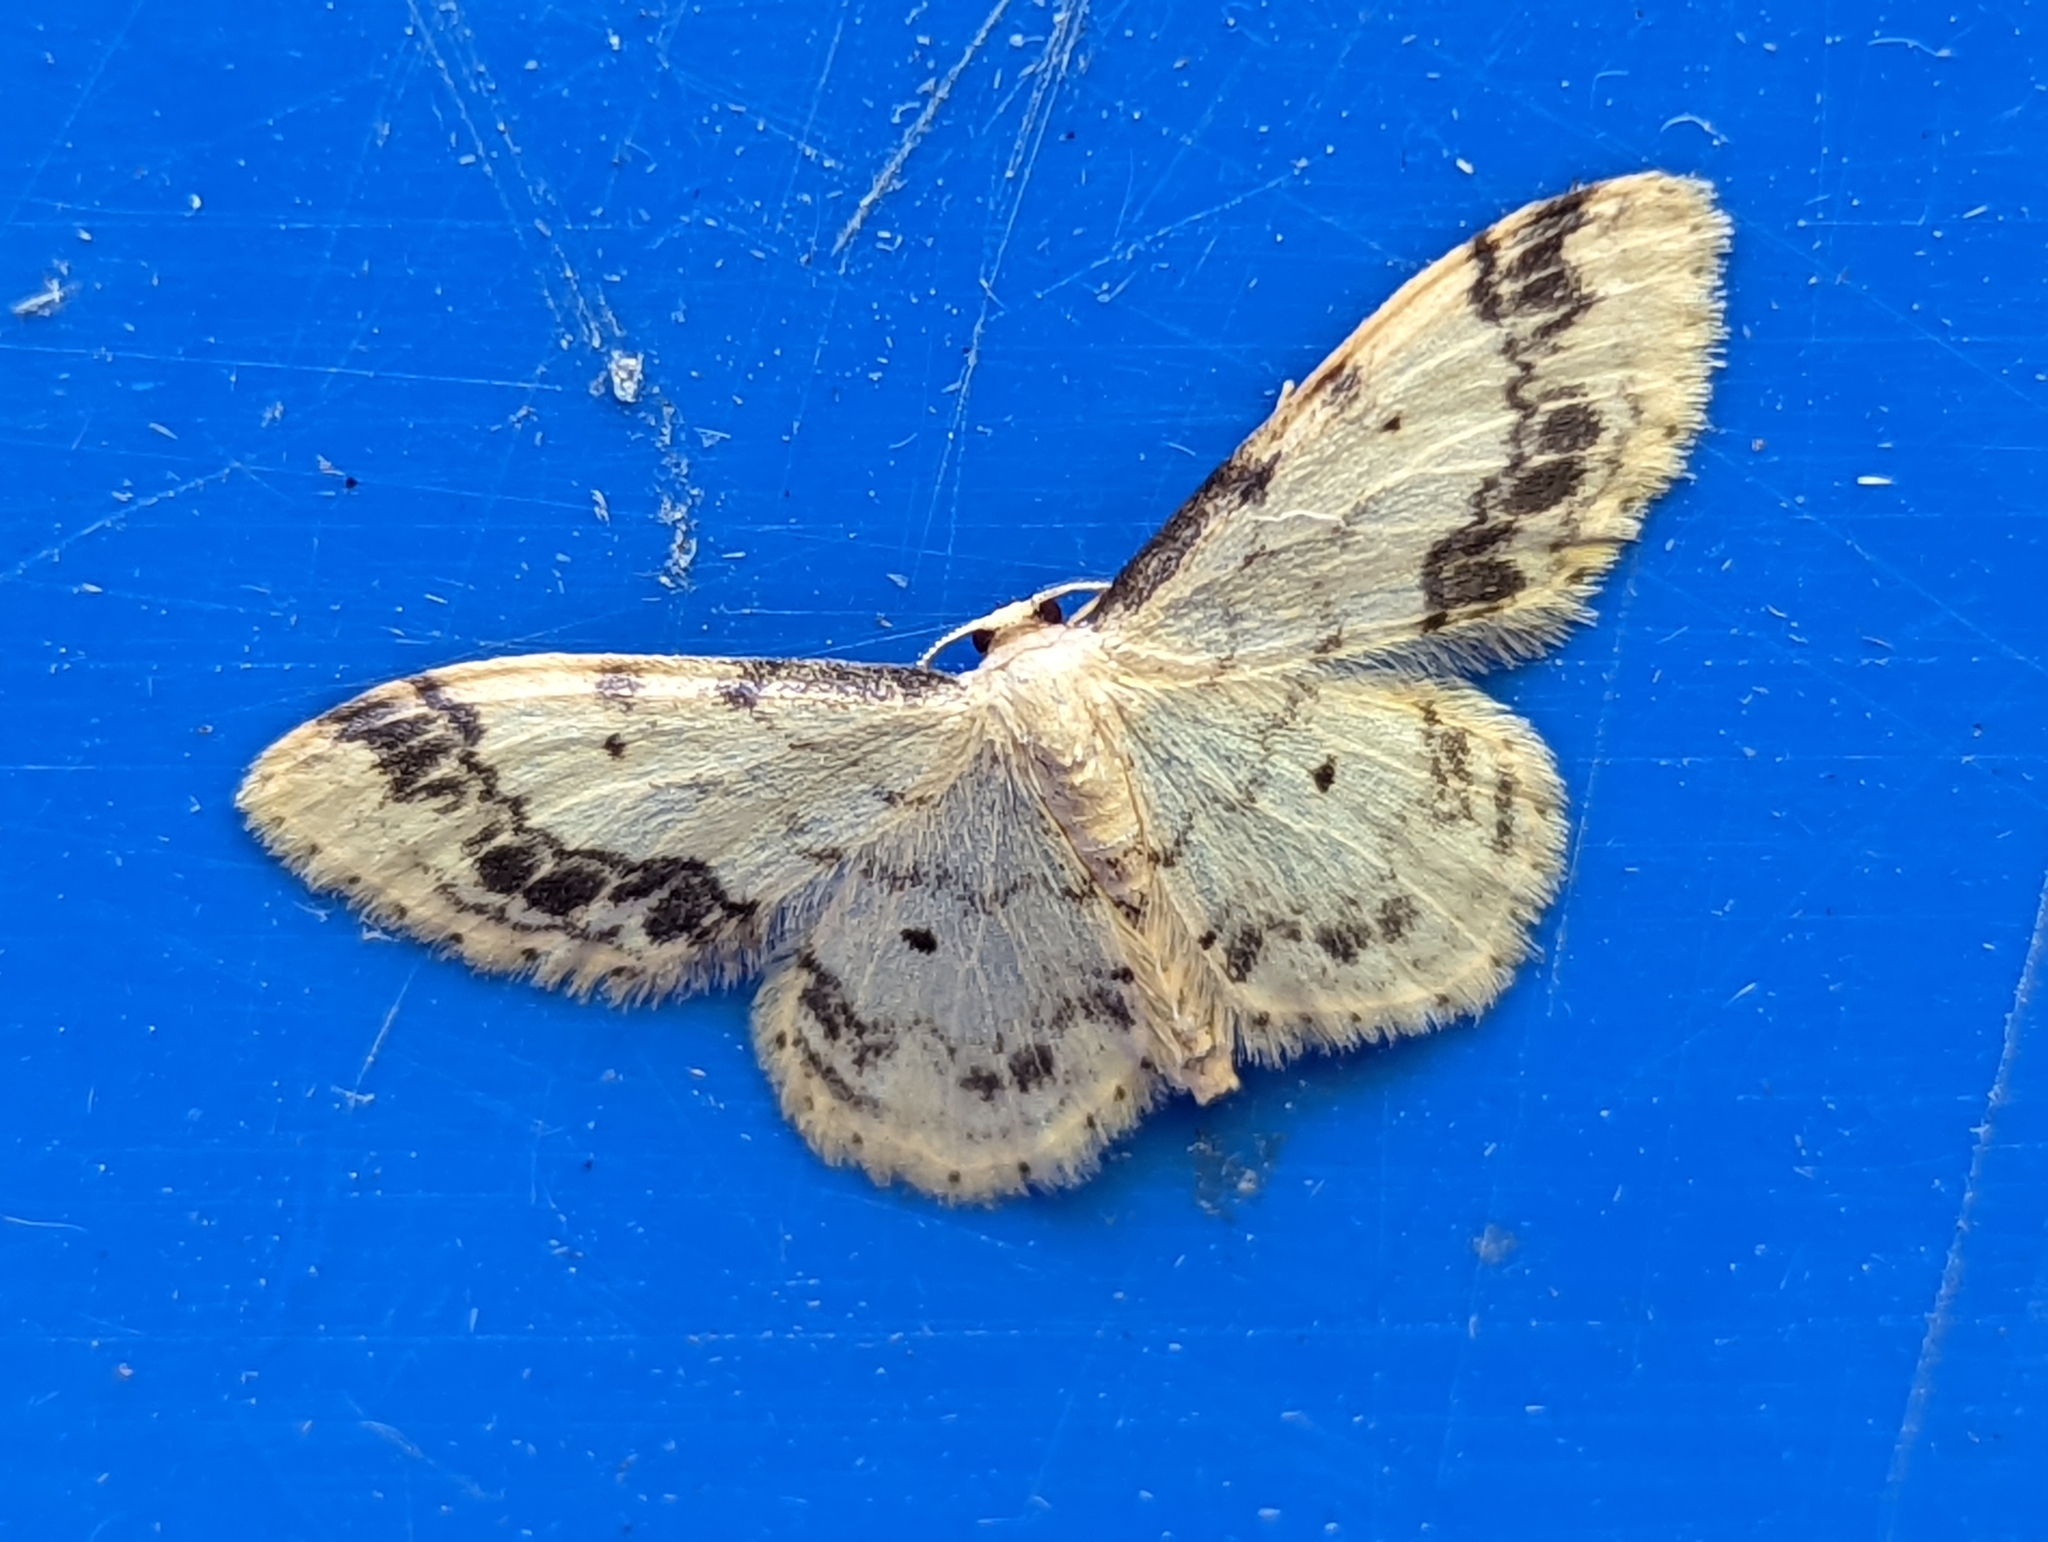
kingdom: Animalia
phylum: Arthropoda
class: Insecta
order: Lepidoptera
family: Geometridae
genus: Idaea
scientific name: Idaea trigeminata
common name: Treble brown spot
